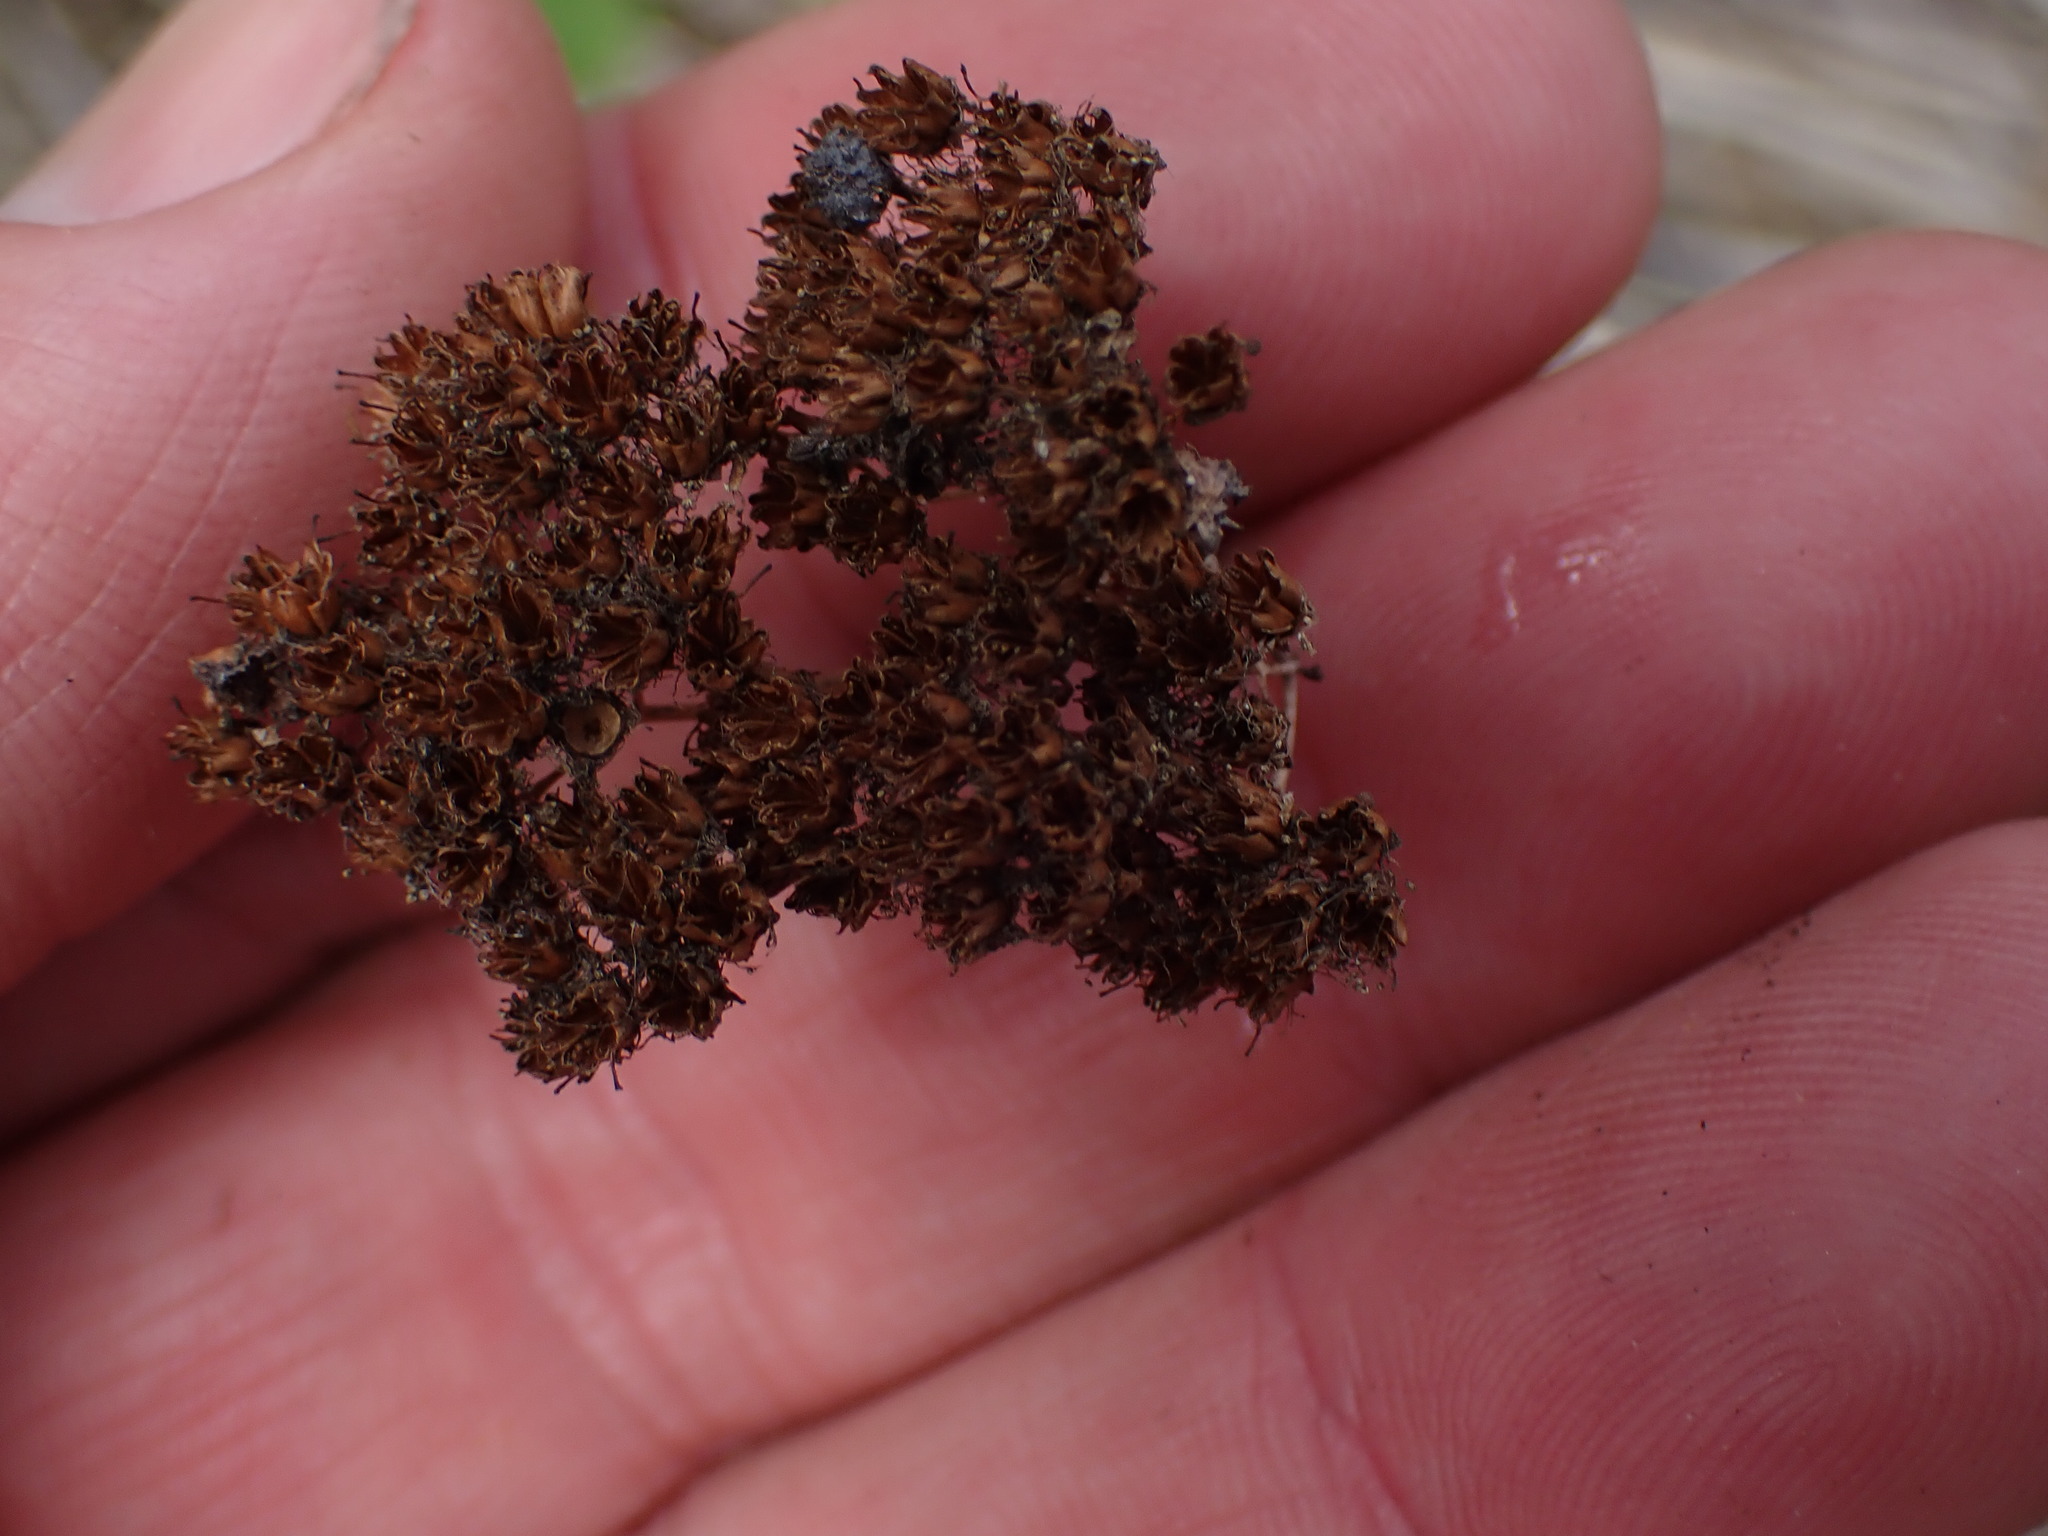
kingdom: Plantae
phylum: Tracheophyta
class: Magnoliopsida
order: Rosales
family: Rosaceae
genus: Spiraea
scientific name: Spiraea lucida
